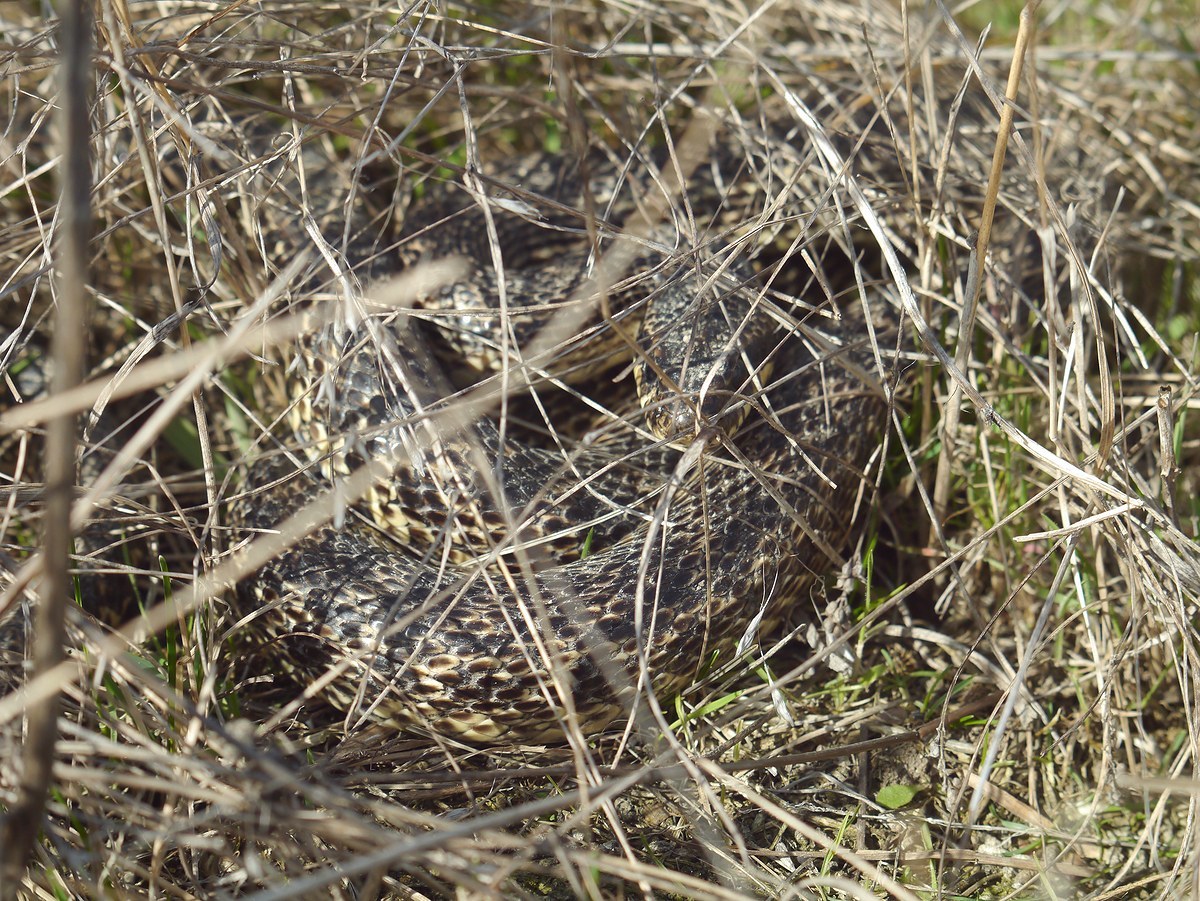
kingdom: Animalia
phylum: Chordata
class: Squamata
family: Colubridae
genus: Elaphe
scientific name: Elaphe sauromates
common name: Eastern four-lined ratsnake
